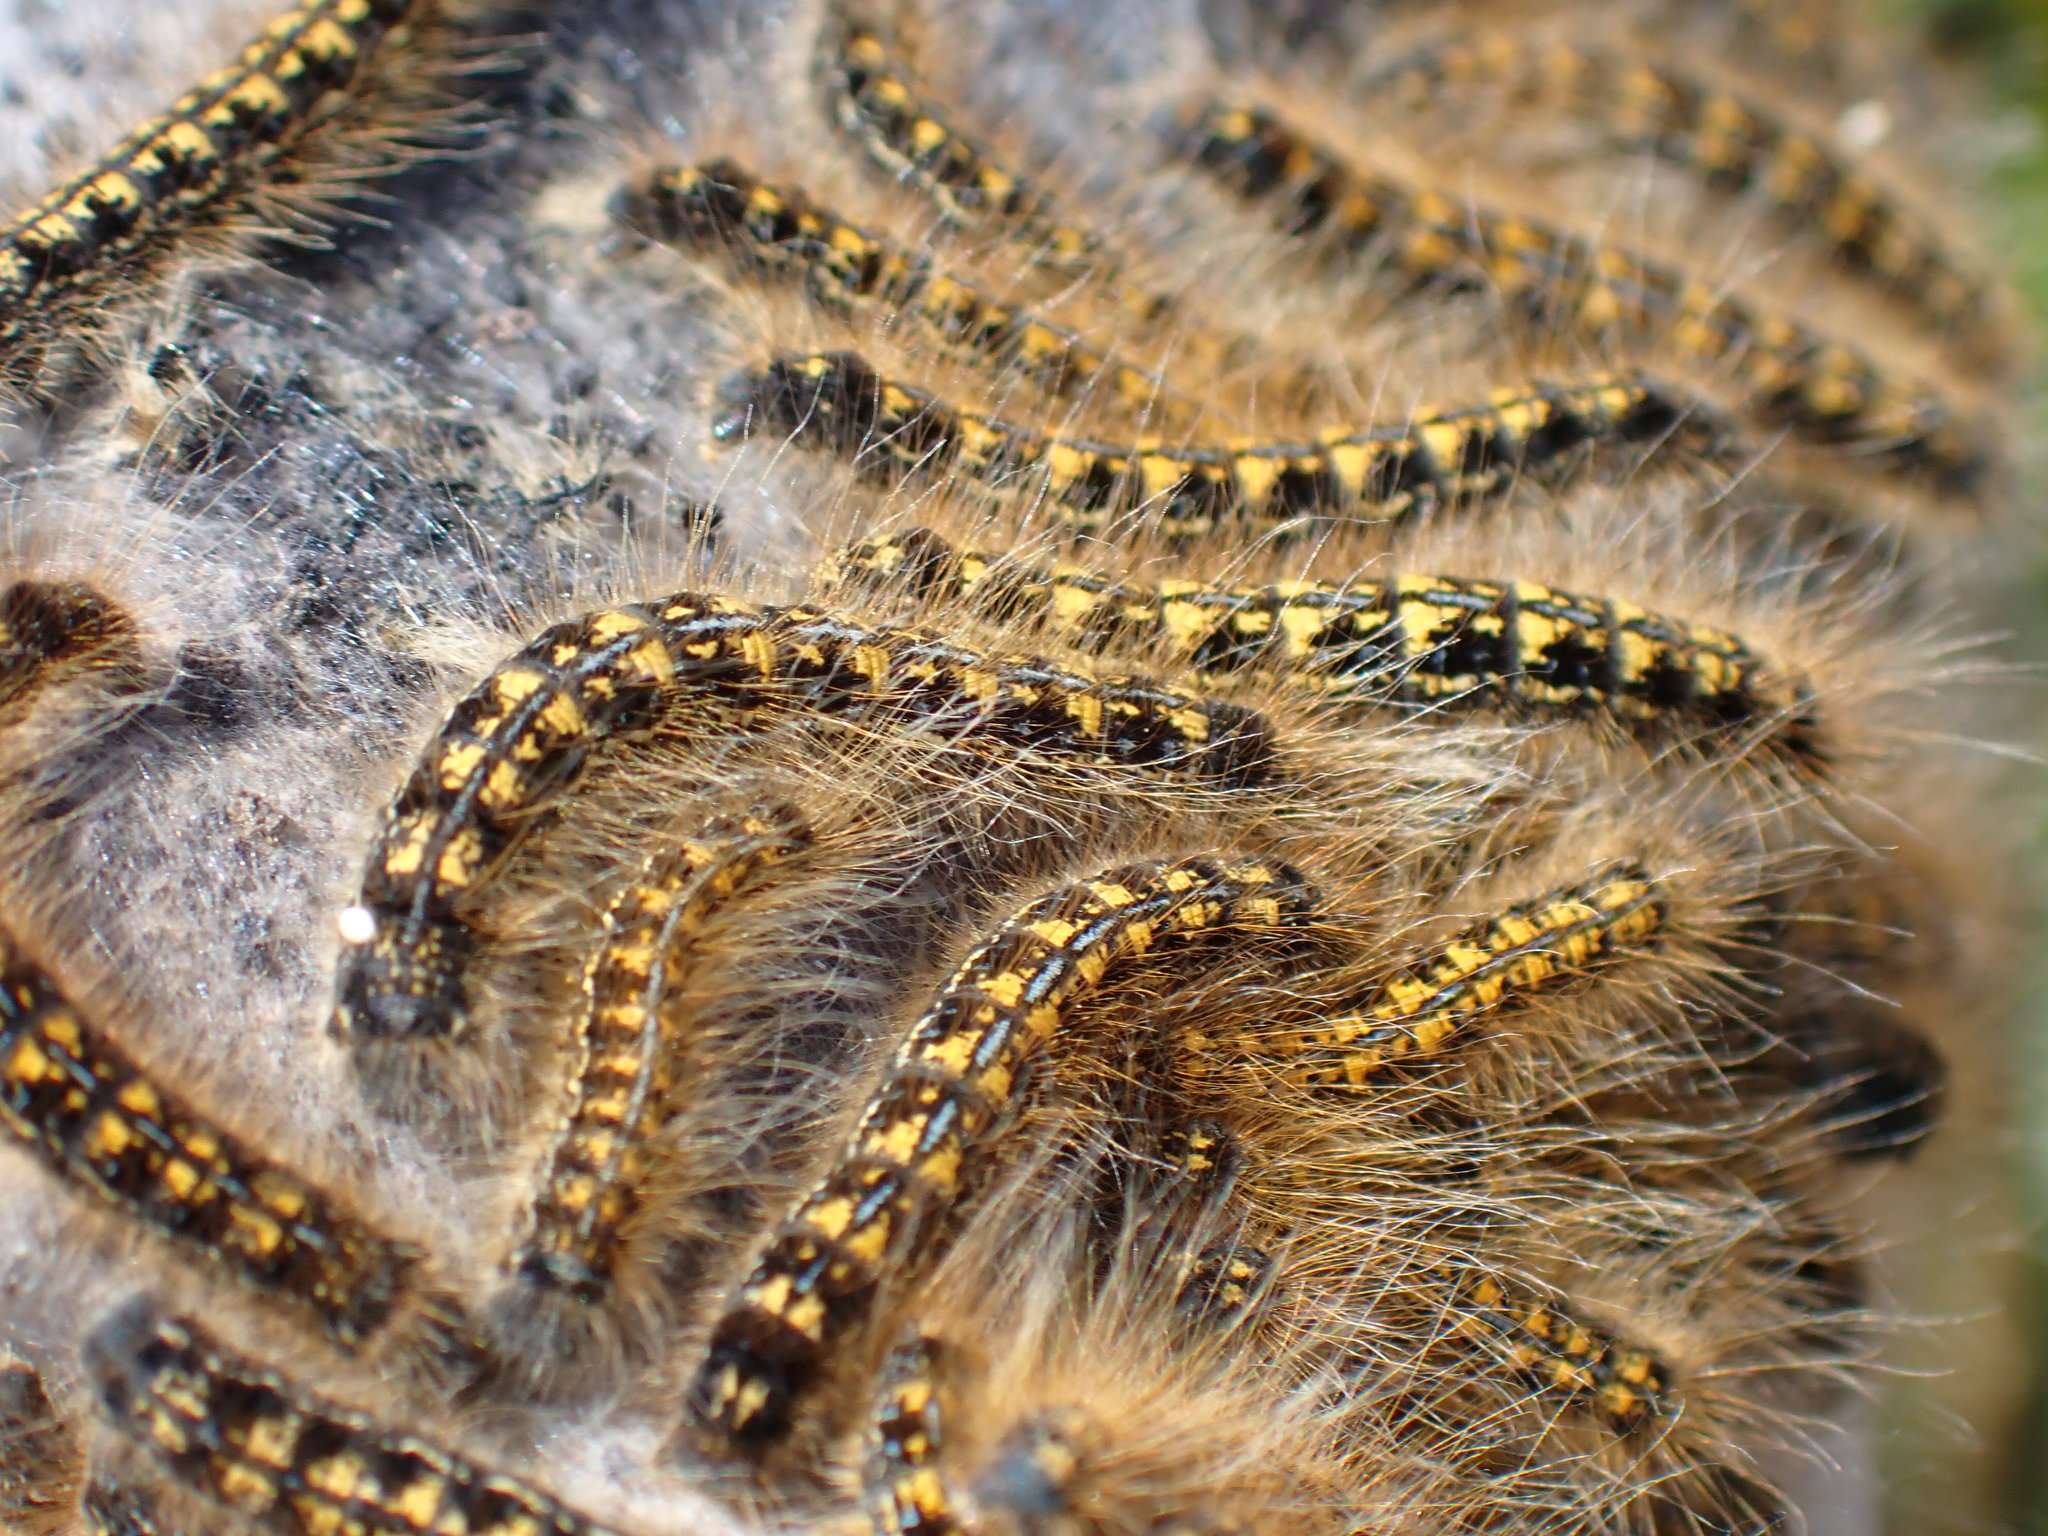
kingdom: Animalia
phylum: Arthropoda
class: Insecta
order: Lepidoptera
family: Lasiocampidae
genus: Malacosoma
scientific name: Malacosoma californica
